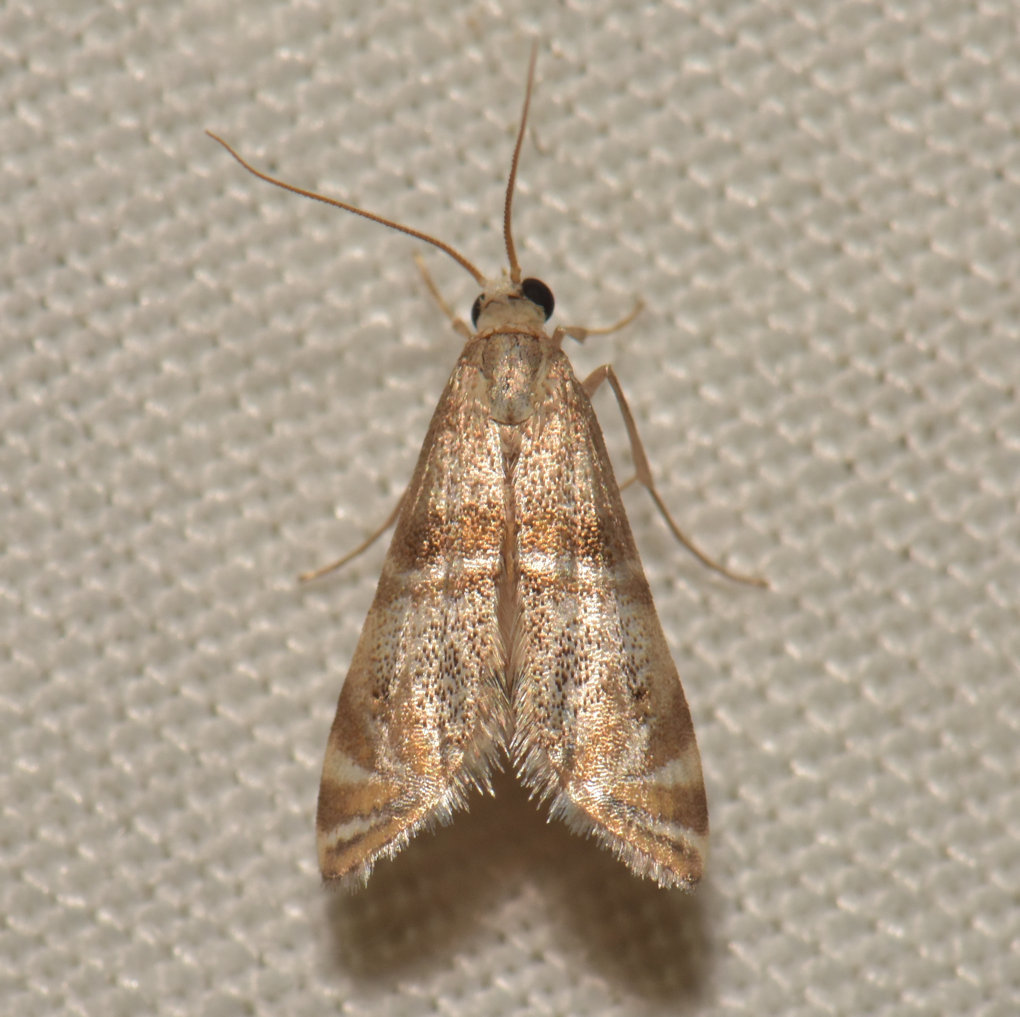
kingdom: Animalia
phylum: Arthropoda
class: Insecta
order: Lepidoptera
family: Crambidae
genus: Petrophila
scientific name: Petrophila bifascialis
